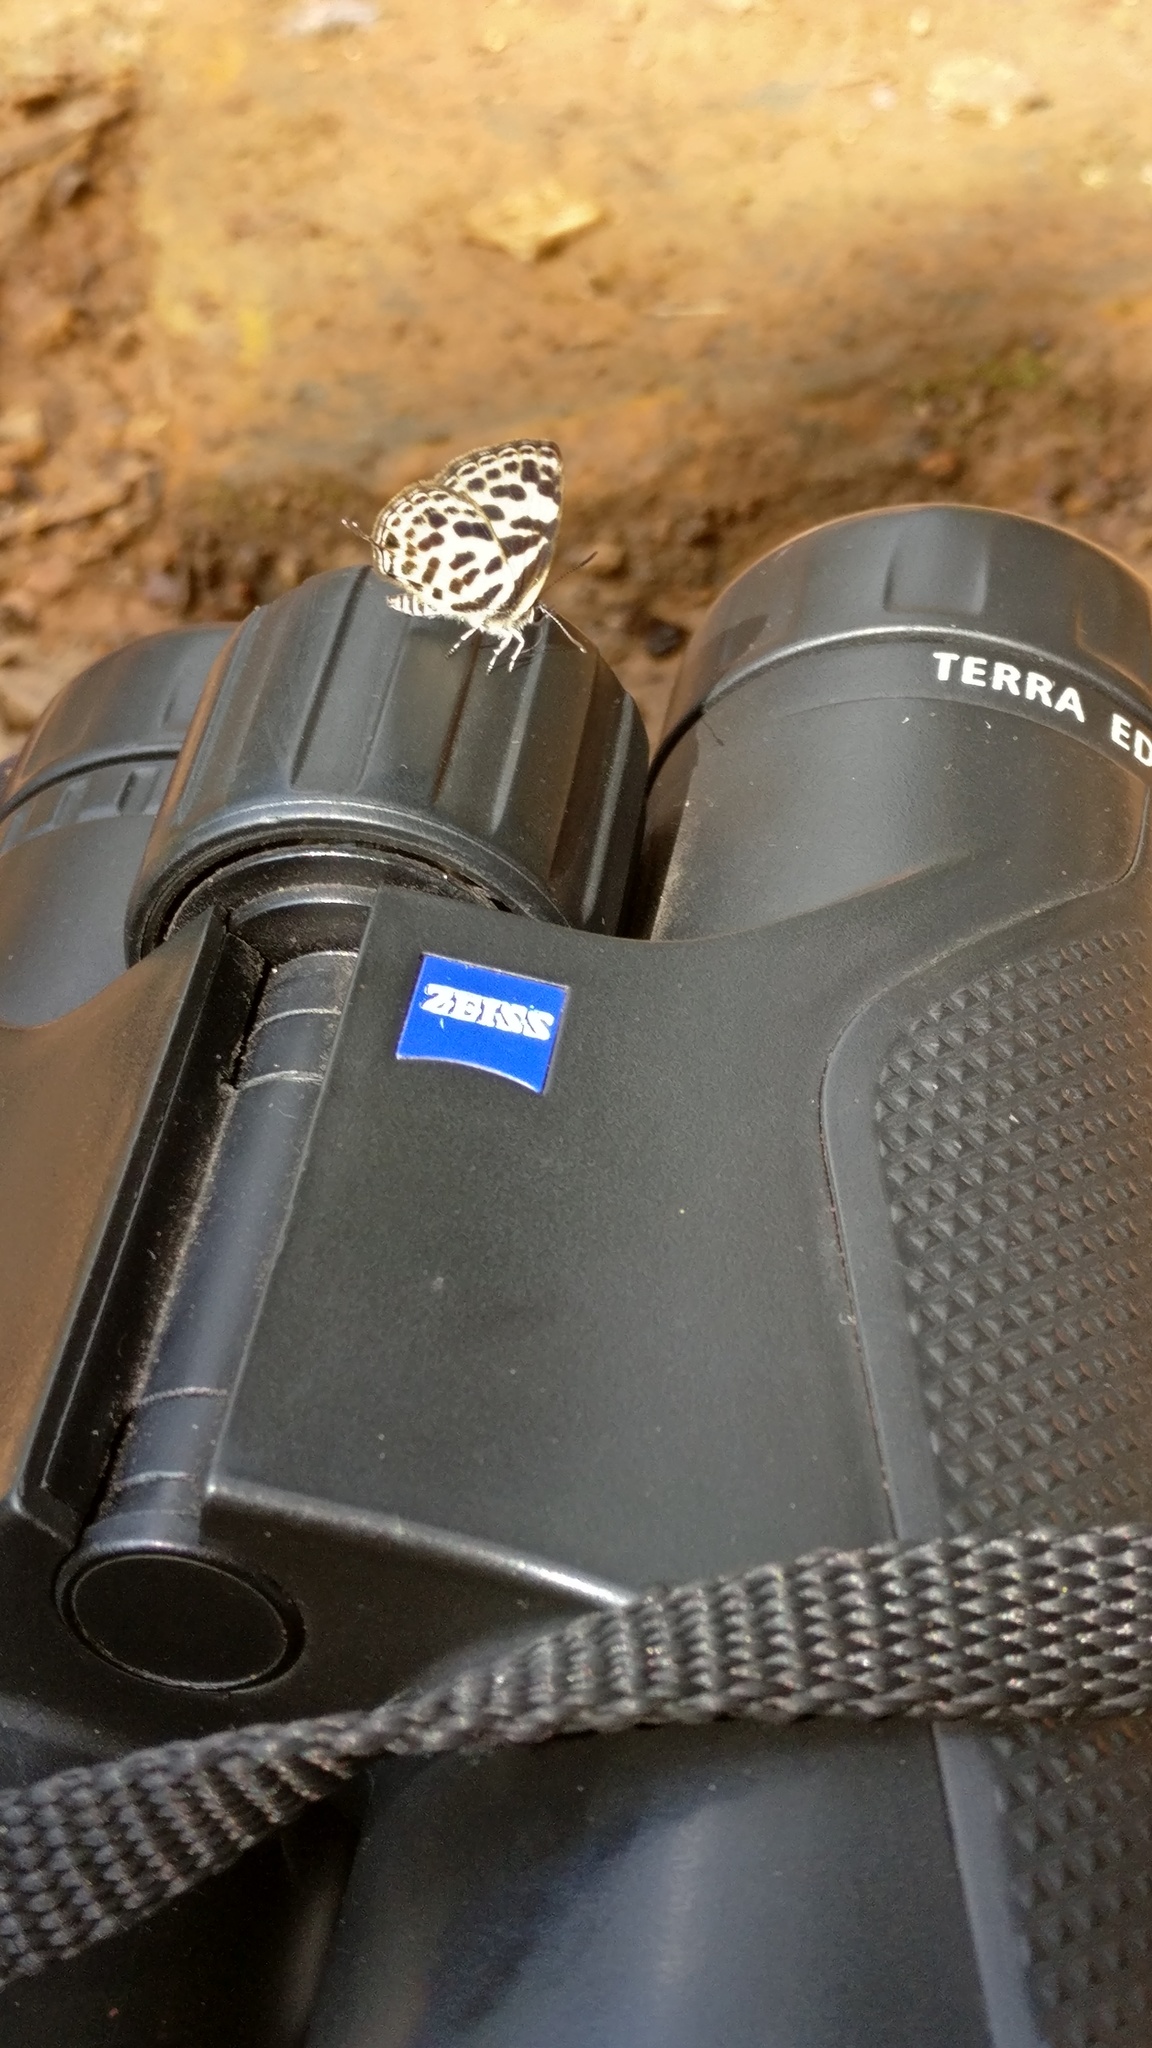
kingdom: Animalia
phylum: Arthropoda
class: Insecta
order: Lepidoptera
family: Lycaenidae
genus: Tarucus
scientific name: Tarucus
